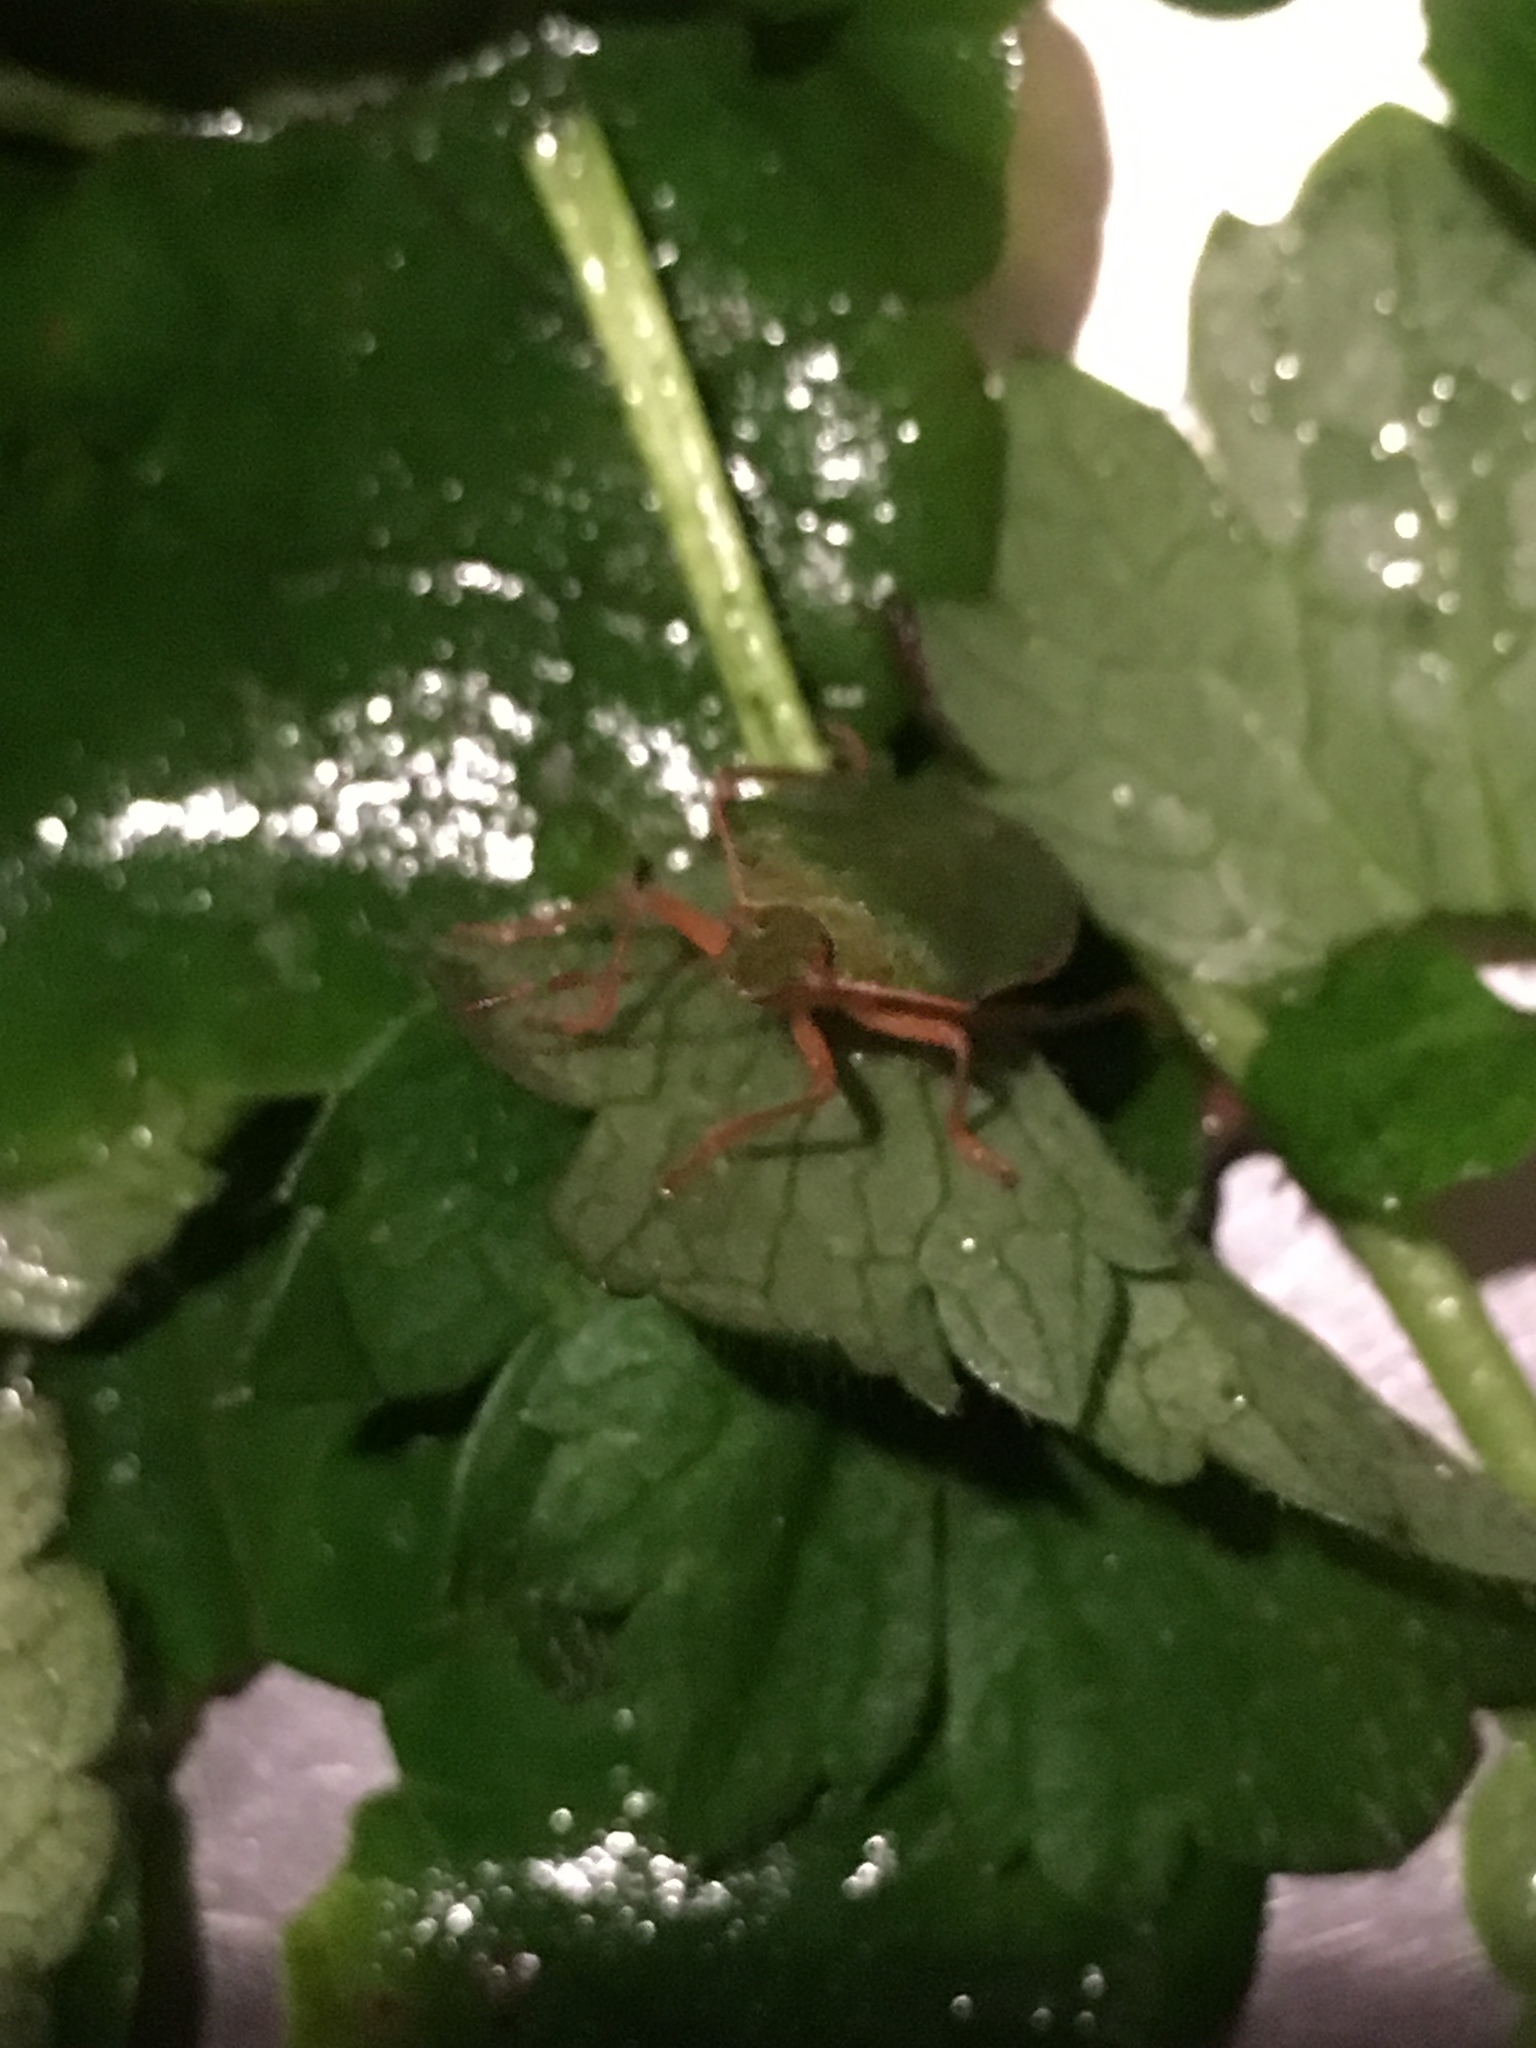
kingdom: Animalia
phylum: Arthropoda
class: Insecta
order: Hemiptera
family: Pentatomidae
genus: Palomena
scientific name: Palomena prasina
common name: Green shieldbug
